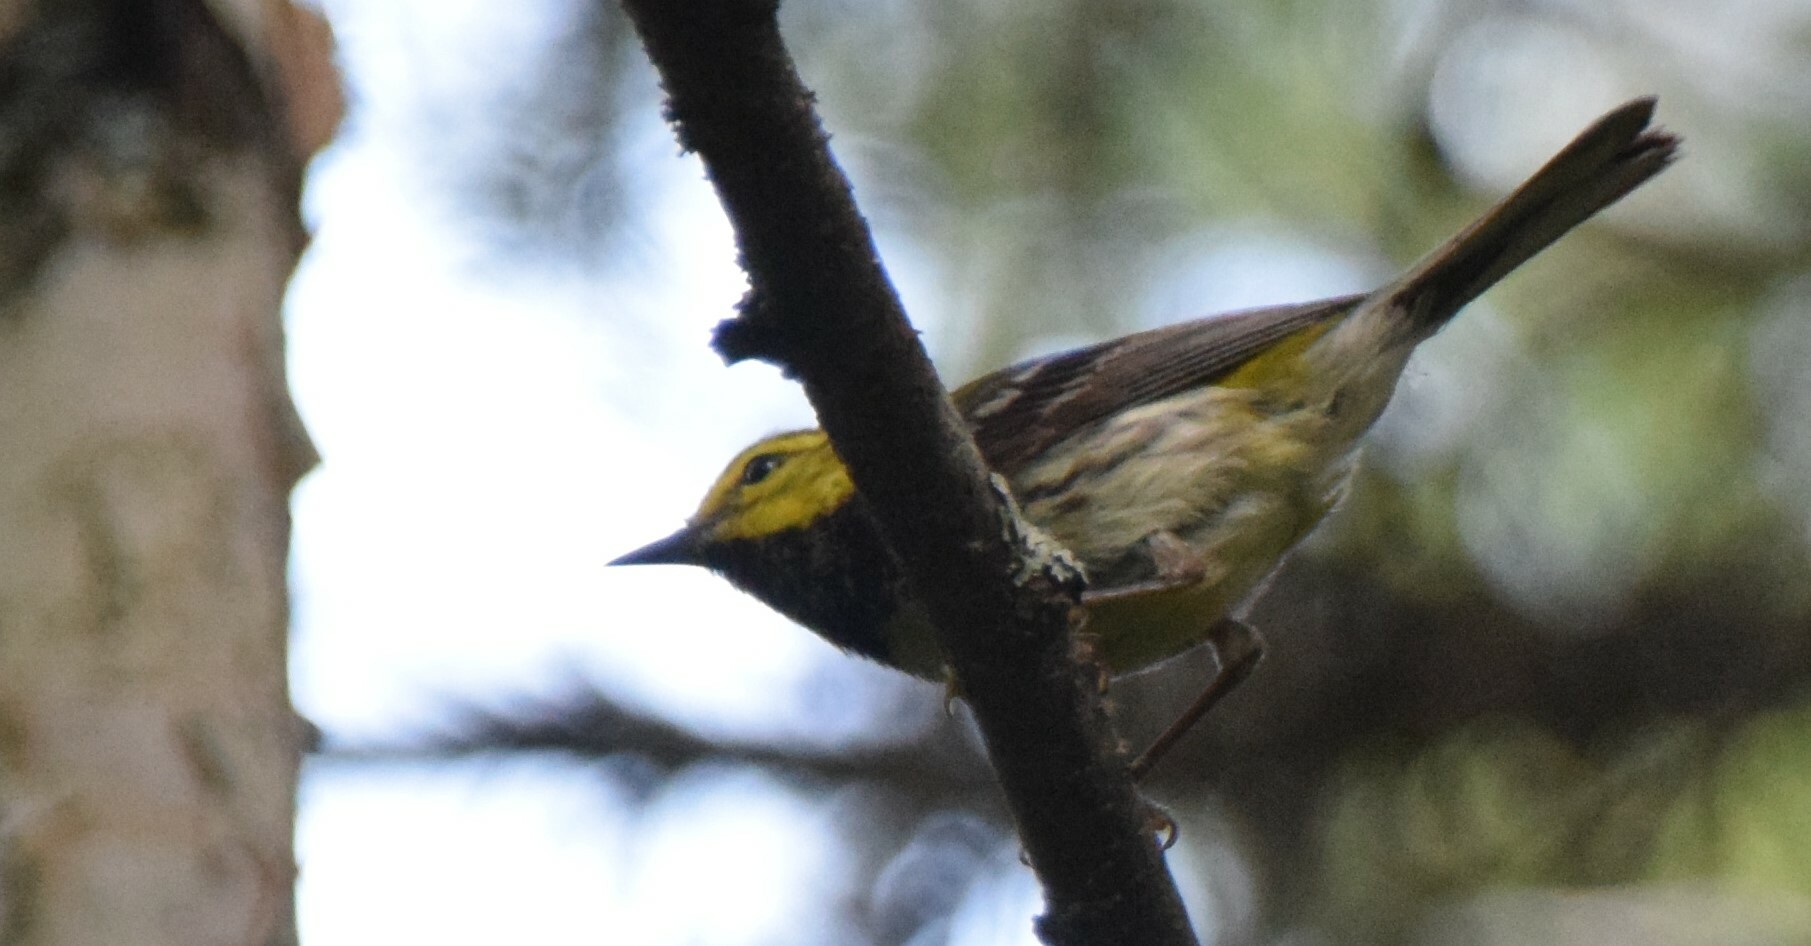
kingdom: Animalia
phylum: Chordata
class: Aves
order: Passeriformes
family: Parulidae
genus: Setophaga
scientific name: Setophaga virens
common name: Black-throated green warbler
